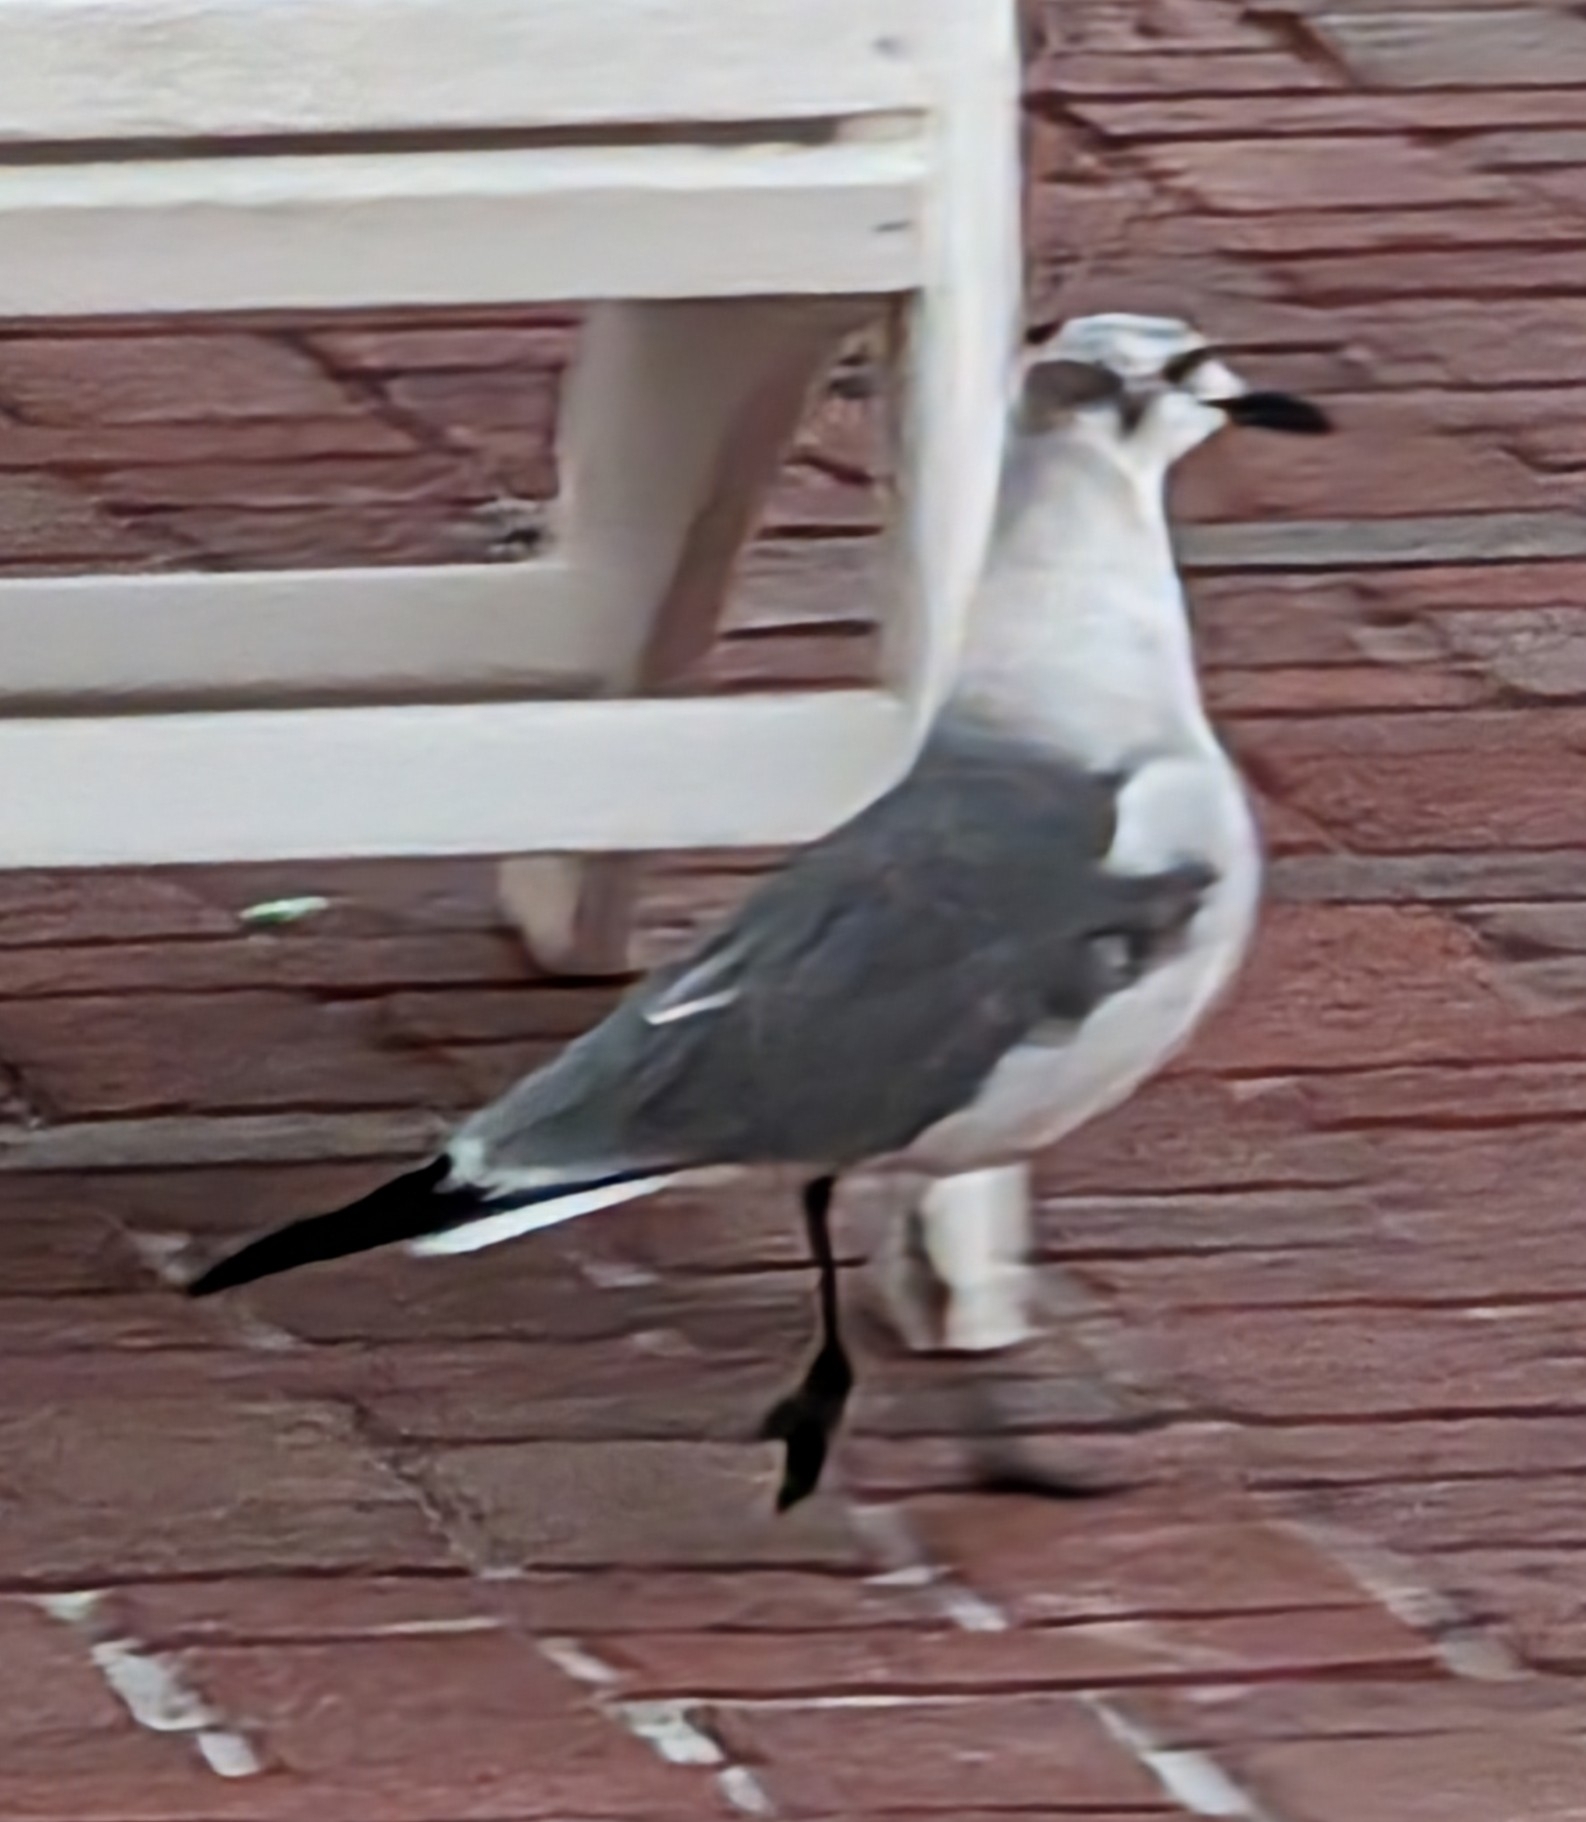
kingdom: Animalia
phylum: Chordata
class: Aves
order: Charadriiformes
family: Laridae
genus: Leucophaeus
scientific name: Leucophaeus atricilla
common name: Laughing gull
